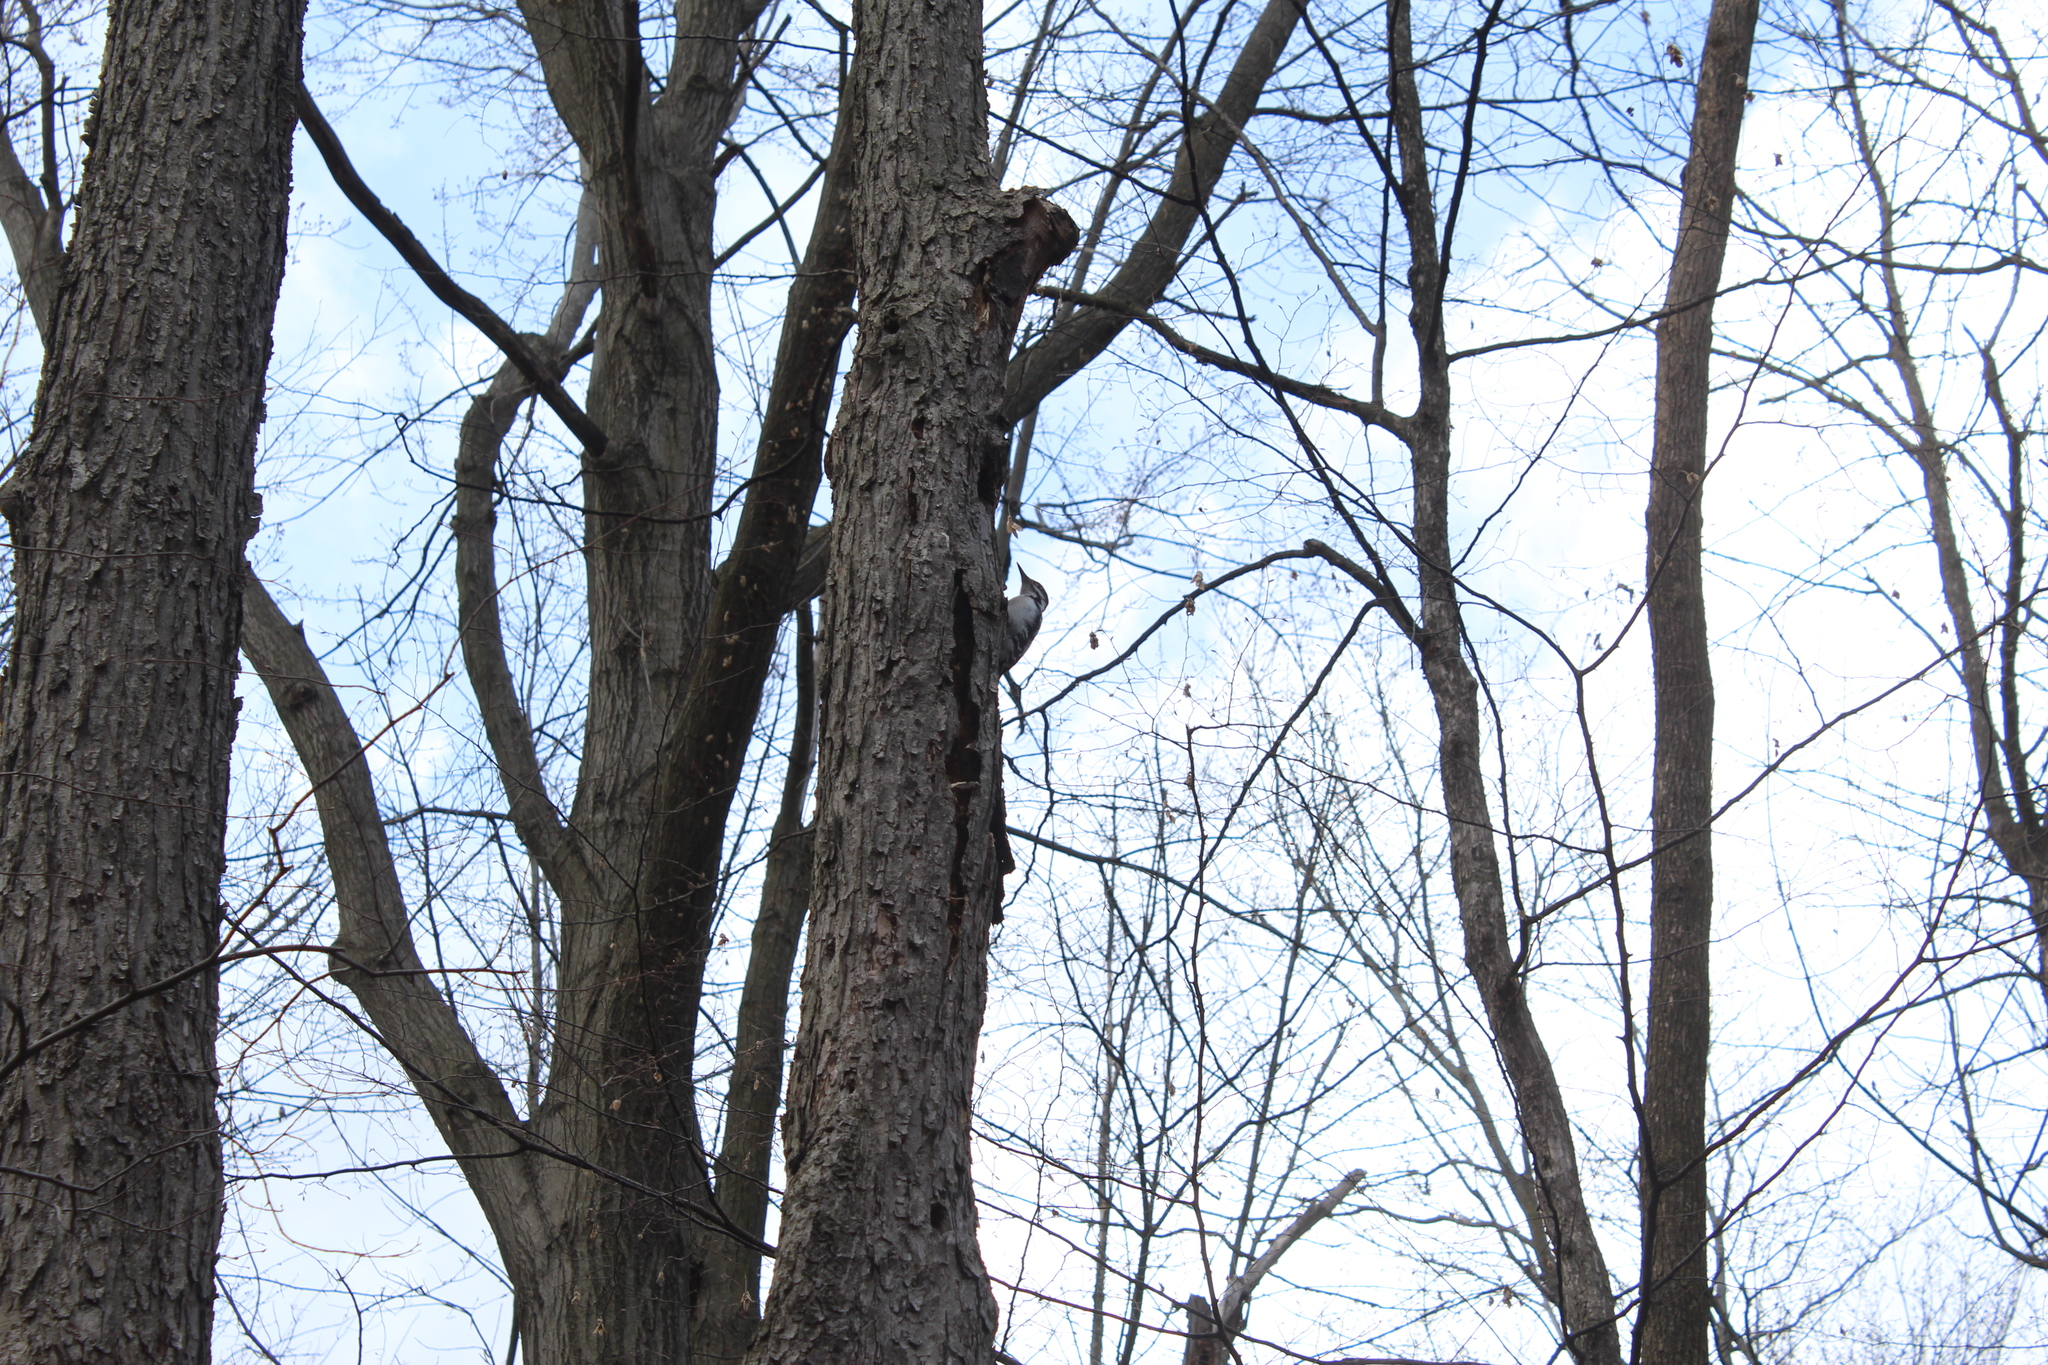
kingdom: Animalia
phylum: Chordata
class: Aves
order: Piciformes
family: Picidae
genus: Leuconotopicus
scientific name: Leuconotopicus villosus
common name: Hairy woodpecker
